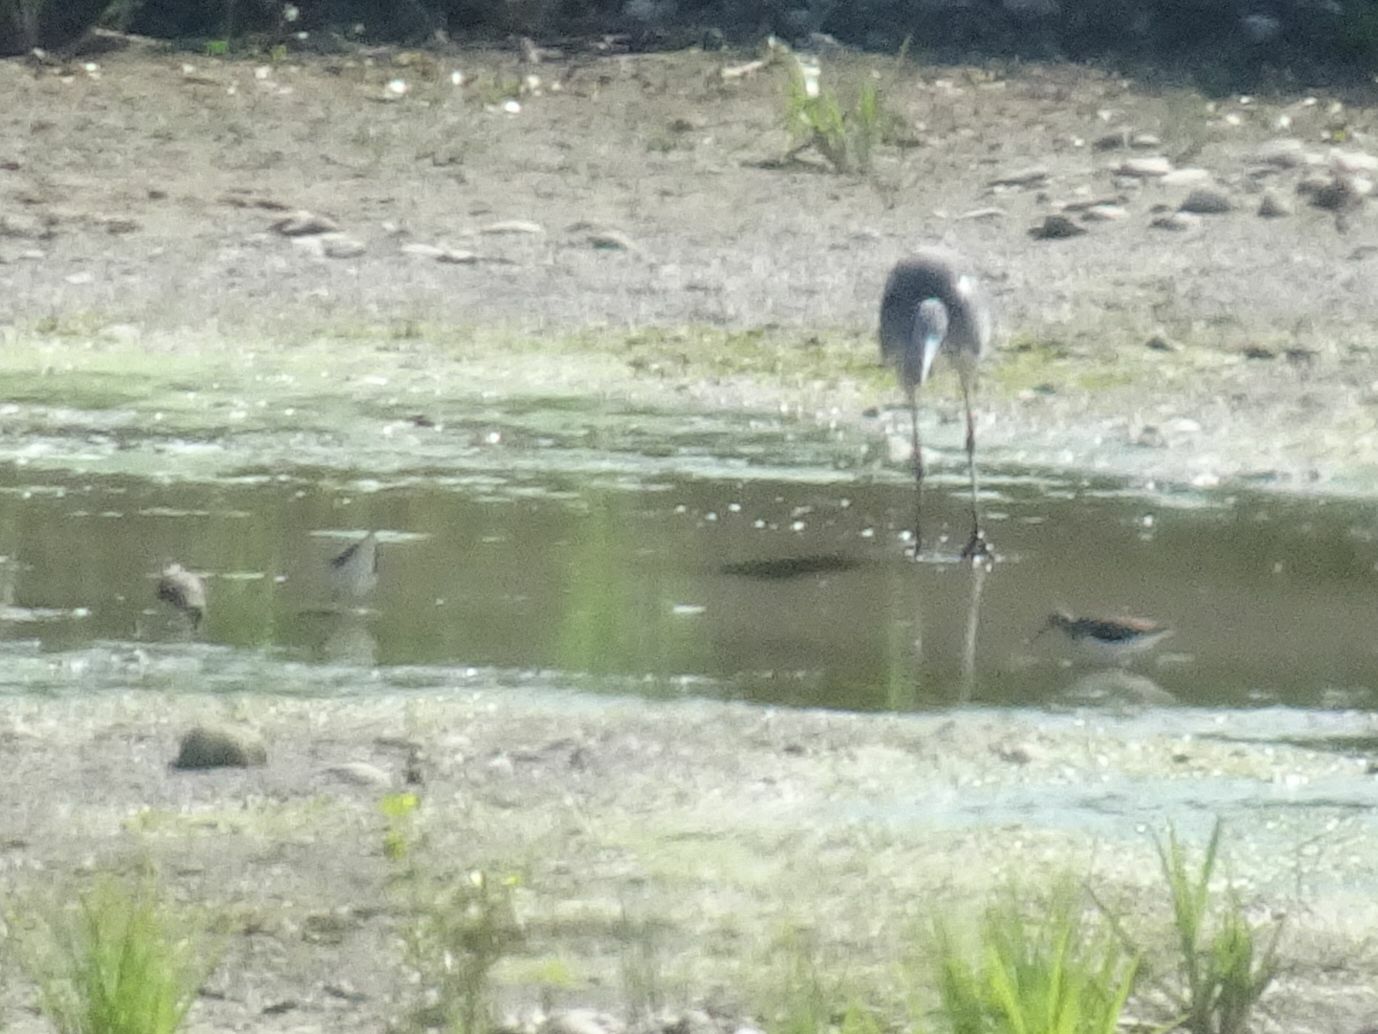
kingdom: Animalia
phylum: Chordata
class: Aves
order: Charadriiformes
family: Scolopacidae
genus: Tringa
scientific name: Tringa ochropus
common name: Green sandpiper
